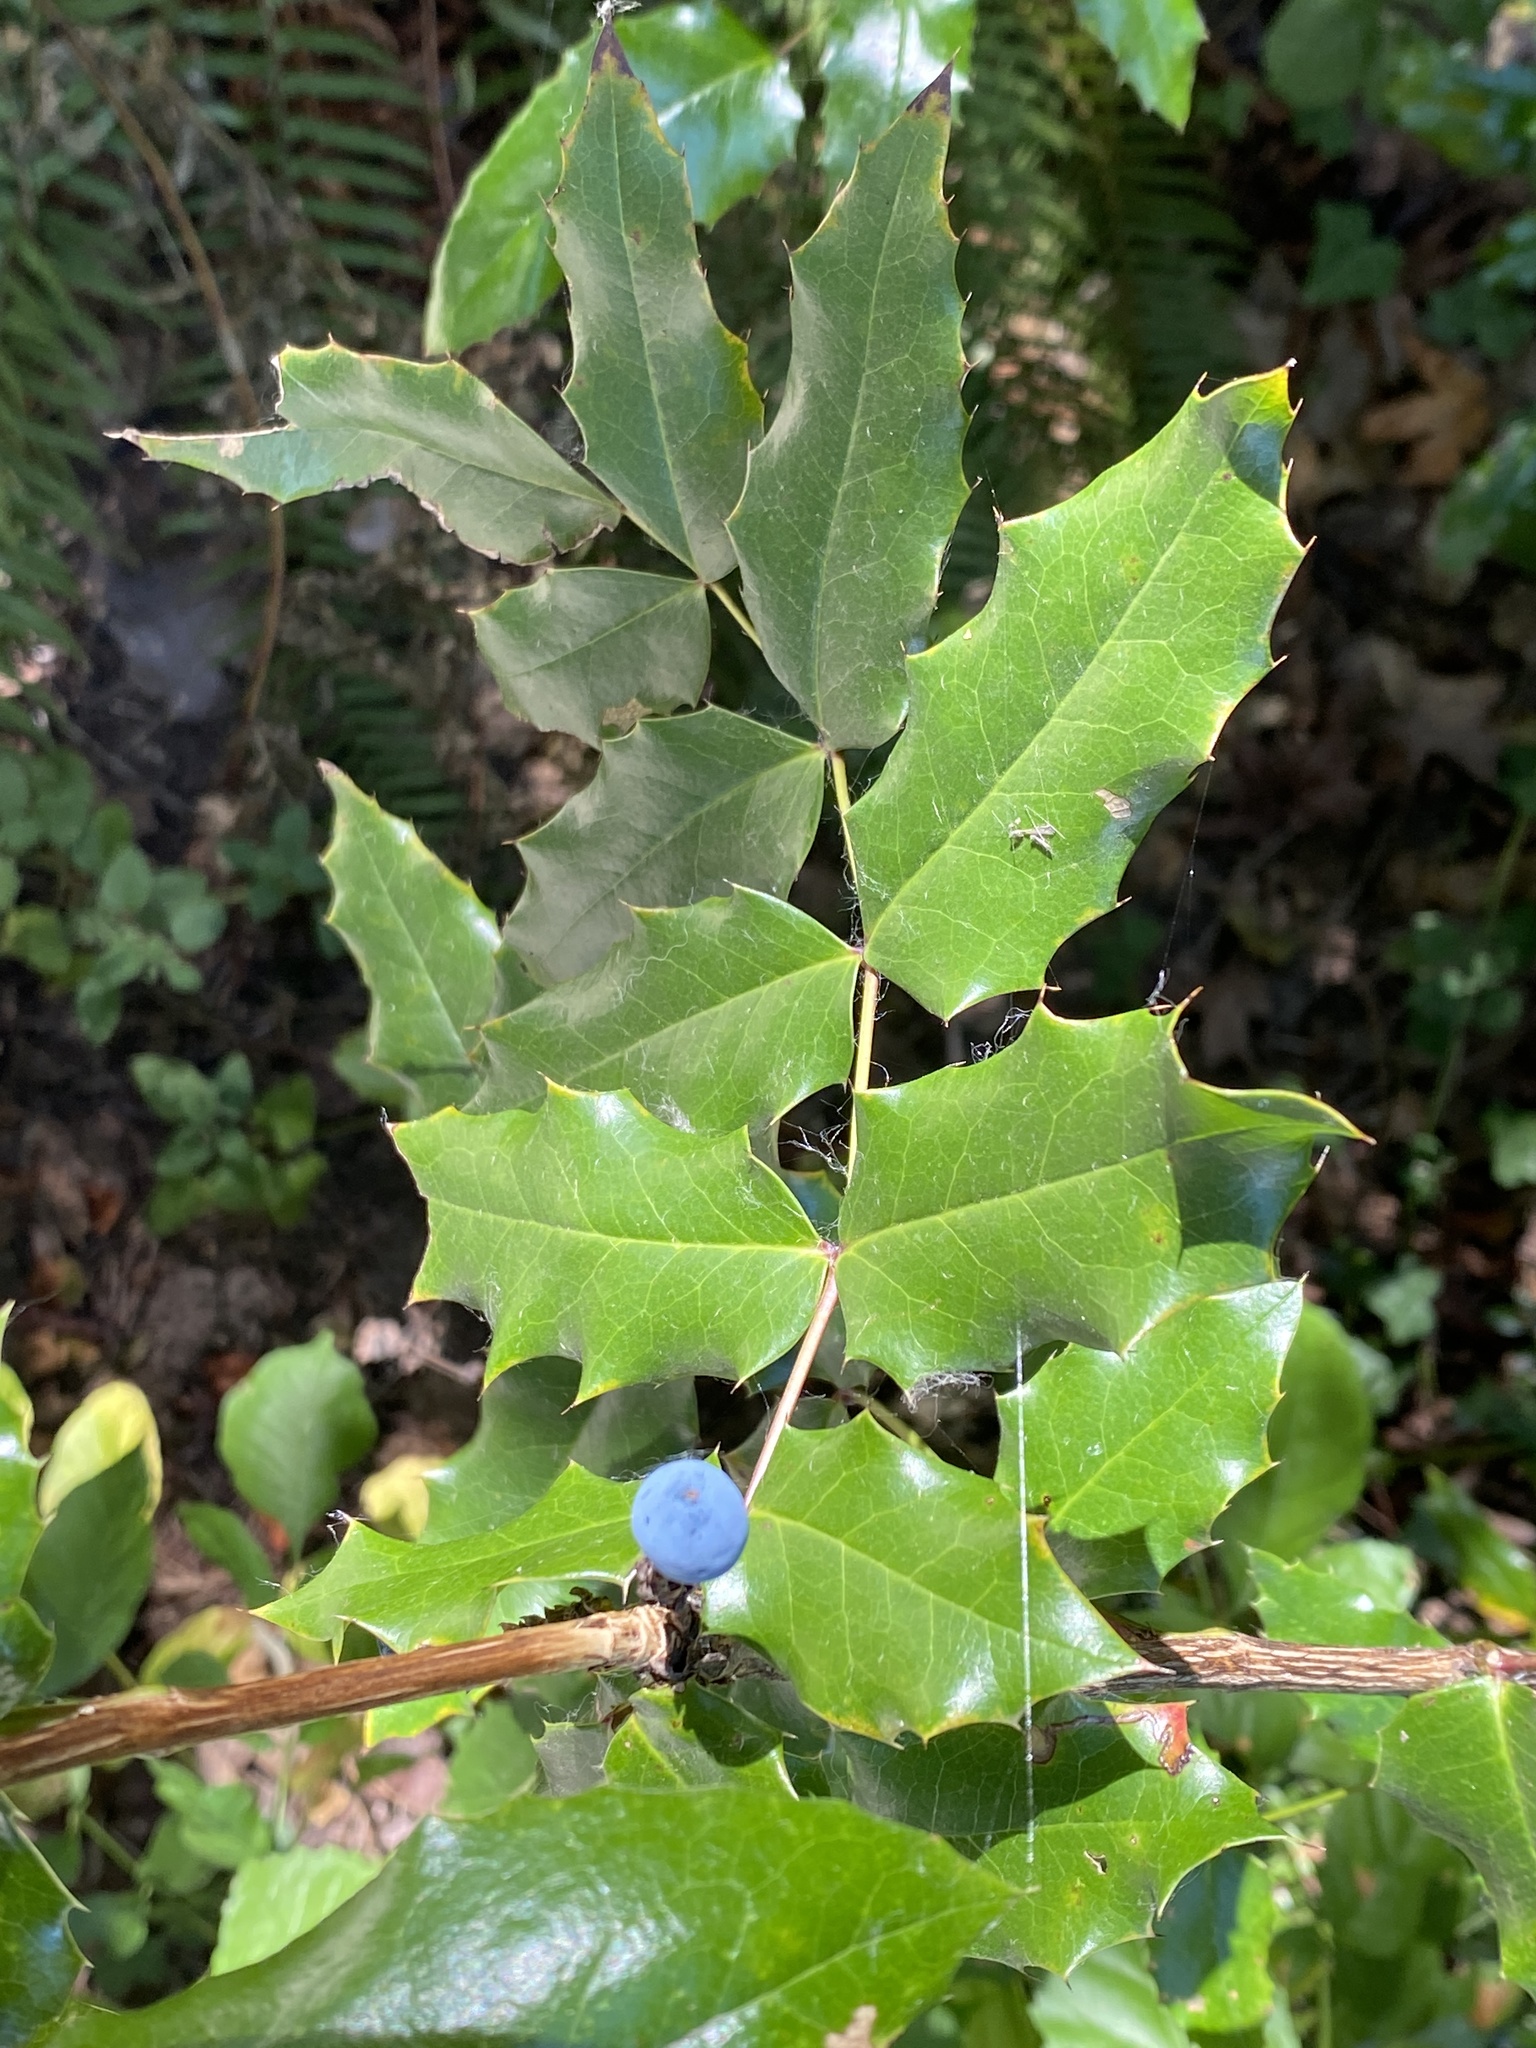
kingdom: Plantae
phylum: Tracheophyta
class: Magnoliopsida
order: Ranunculales
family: Berberidaceae
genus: Mahonia
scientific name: Mahonia aquifolium
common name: Oregon-grape
